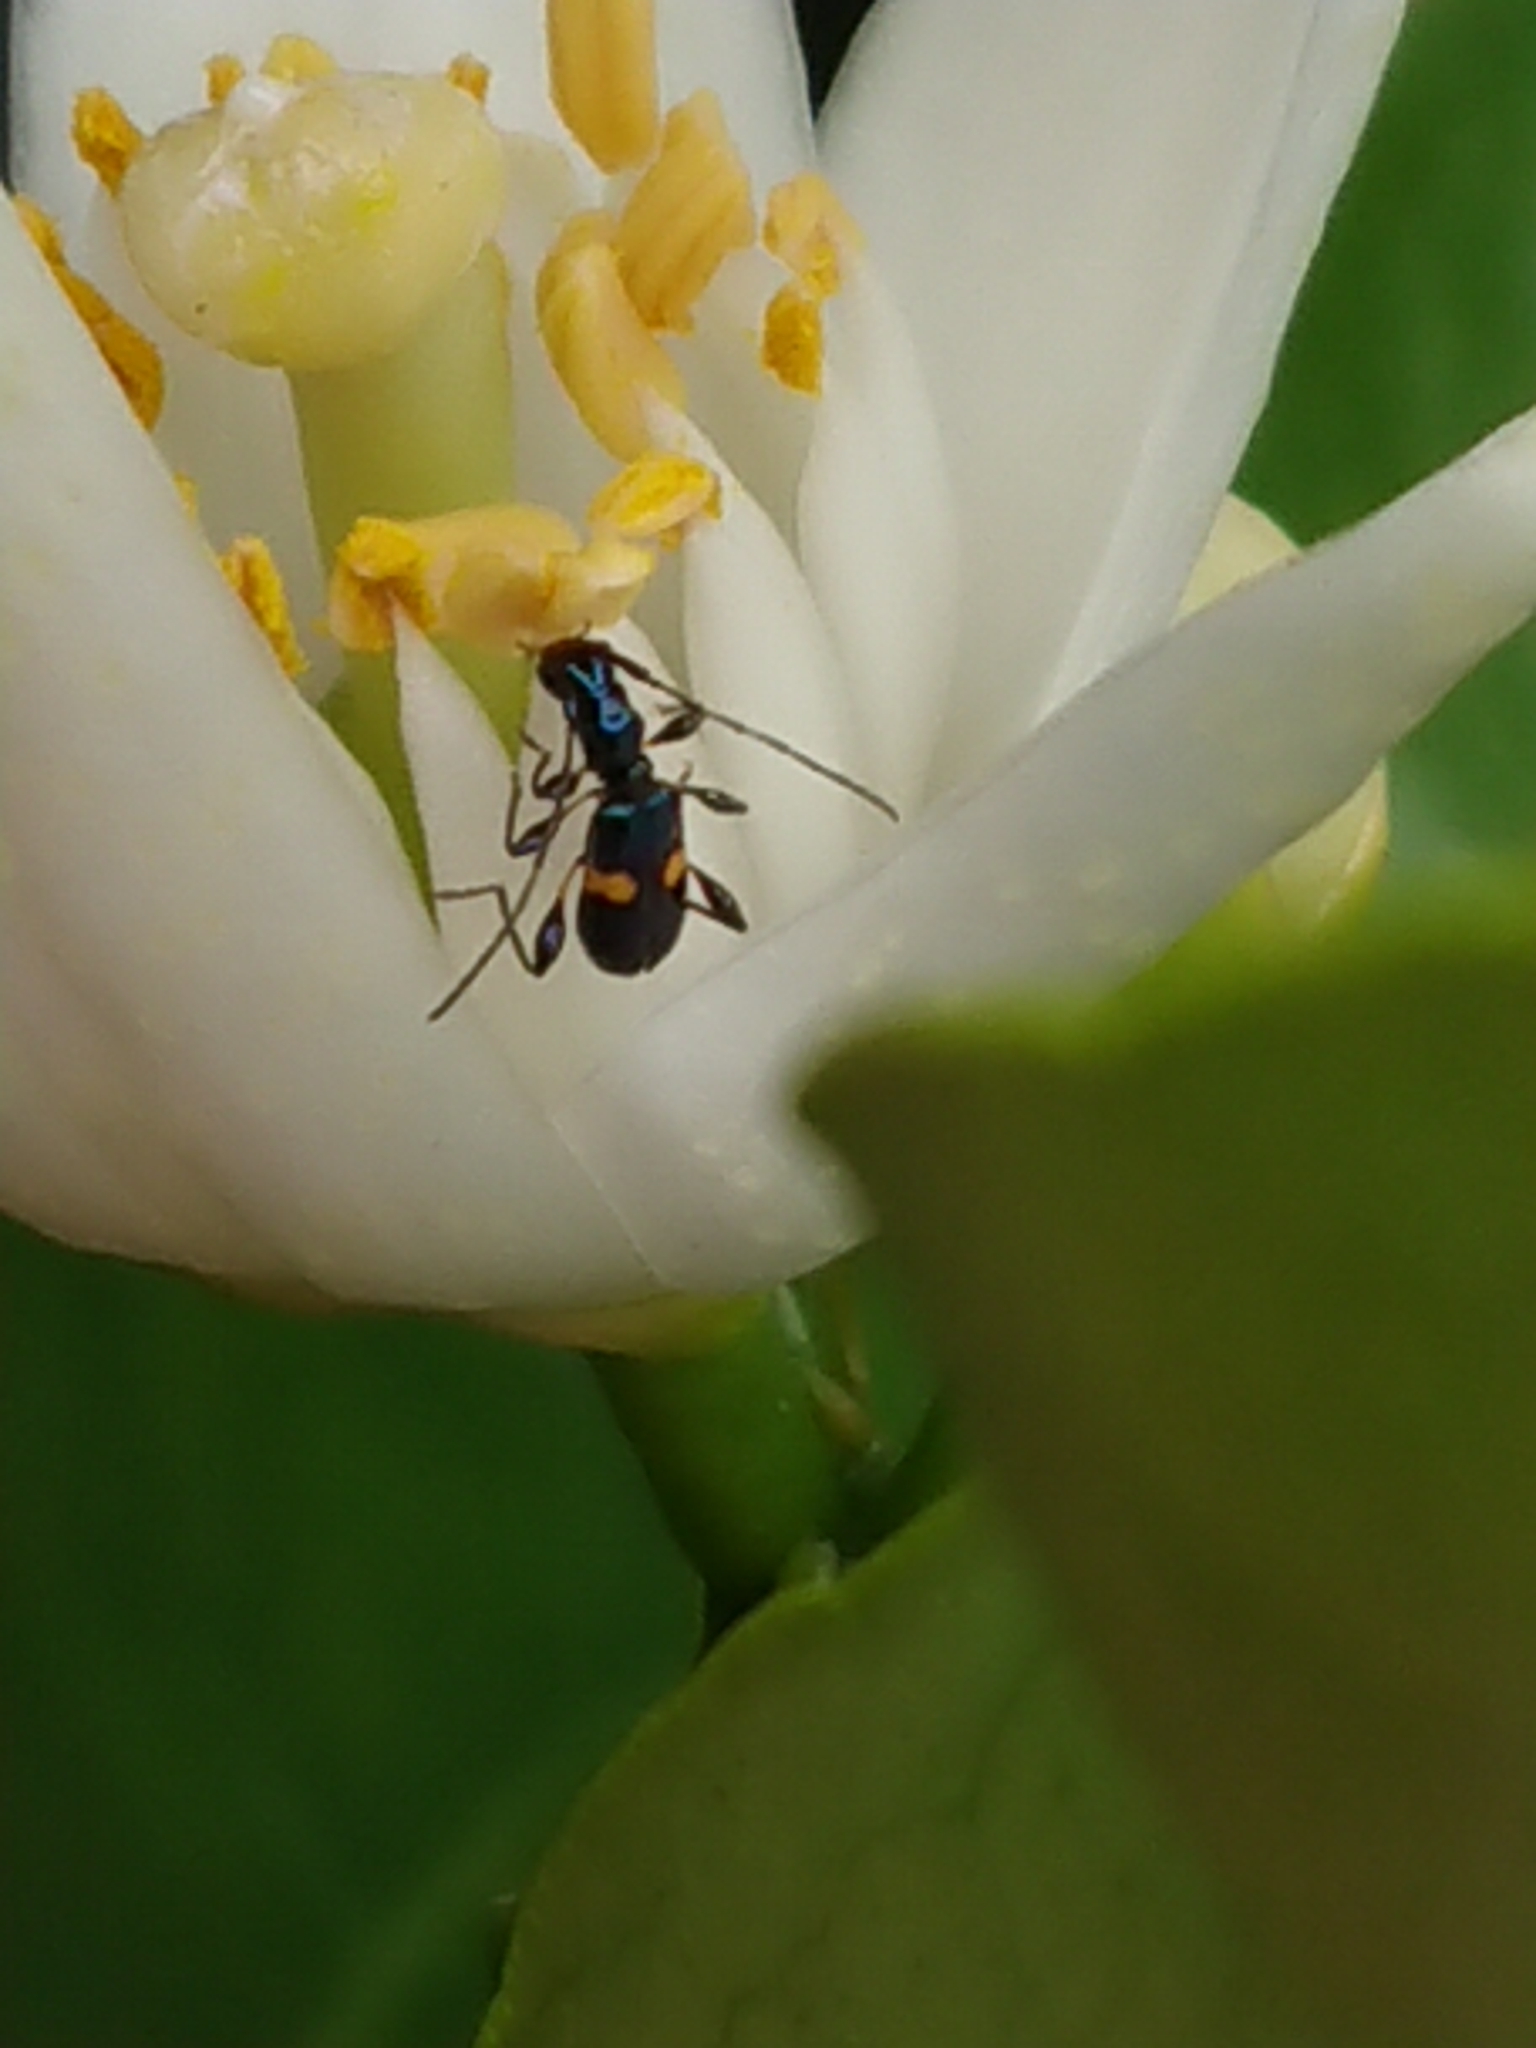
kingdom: Animalia
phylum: Arthropoda
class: Insecta
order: Coleoptera
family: Cerambycidae
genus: Zorion
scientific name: Zorion guttigerum
